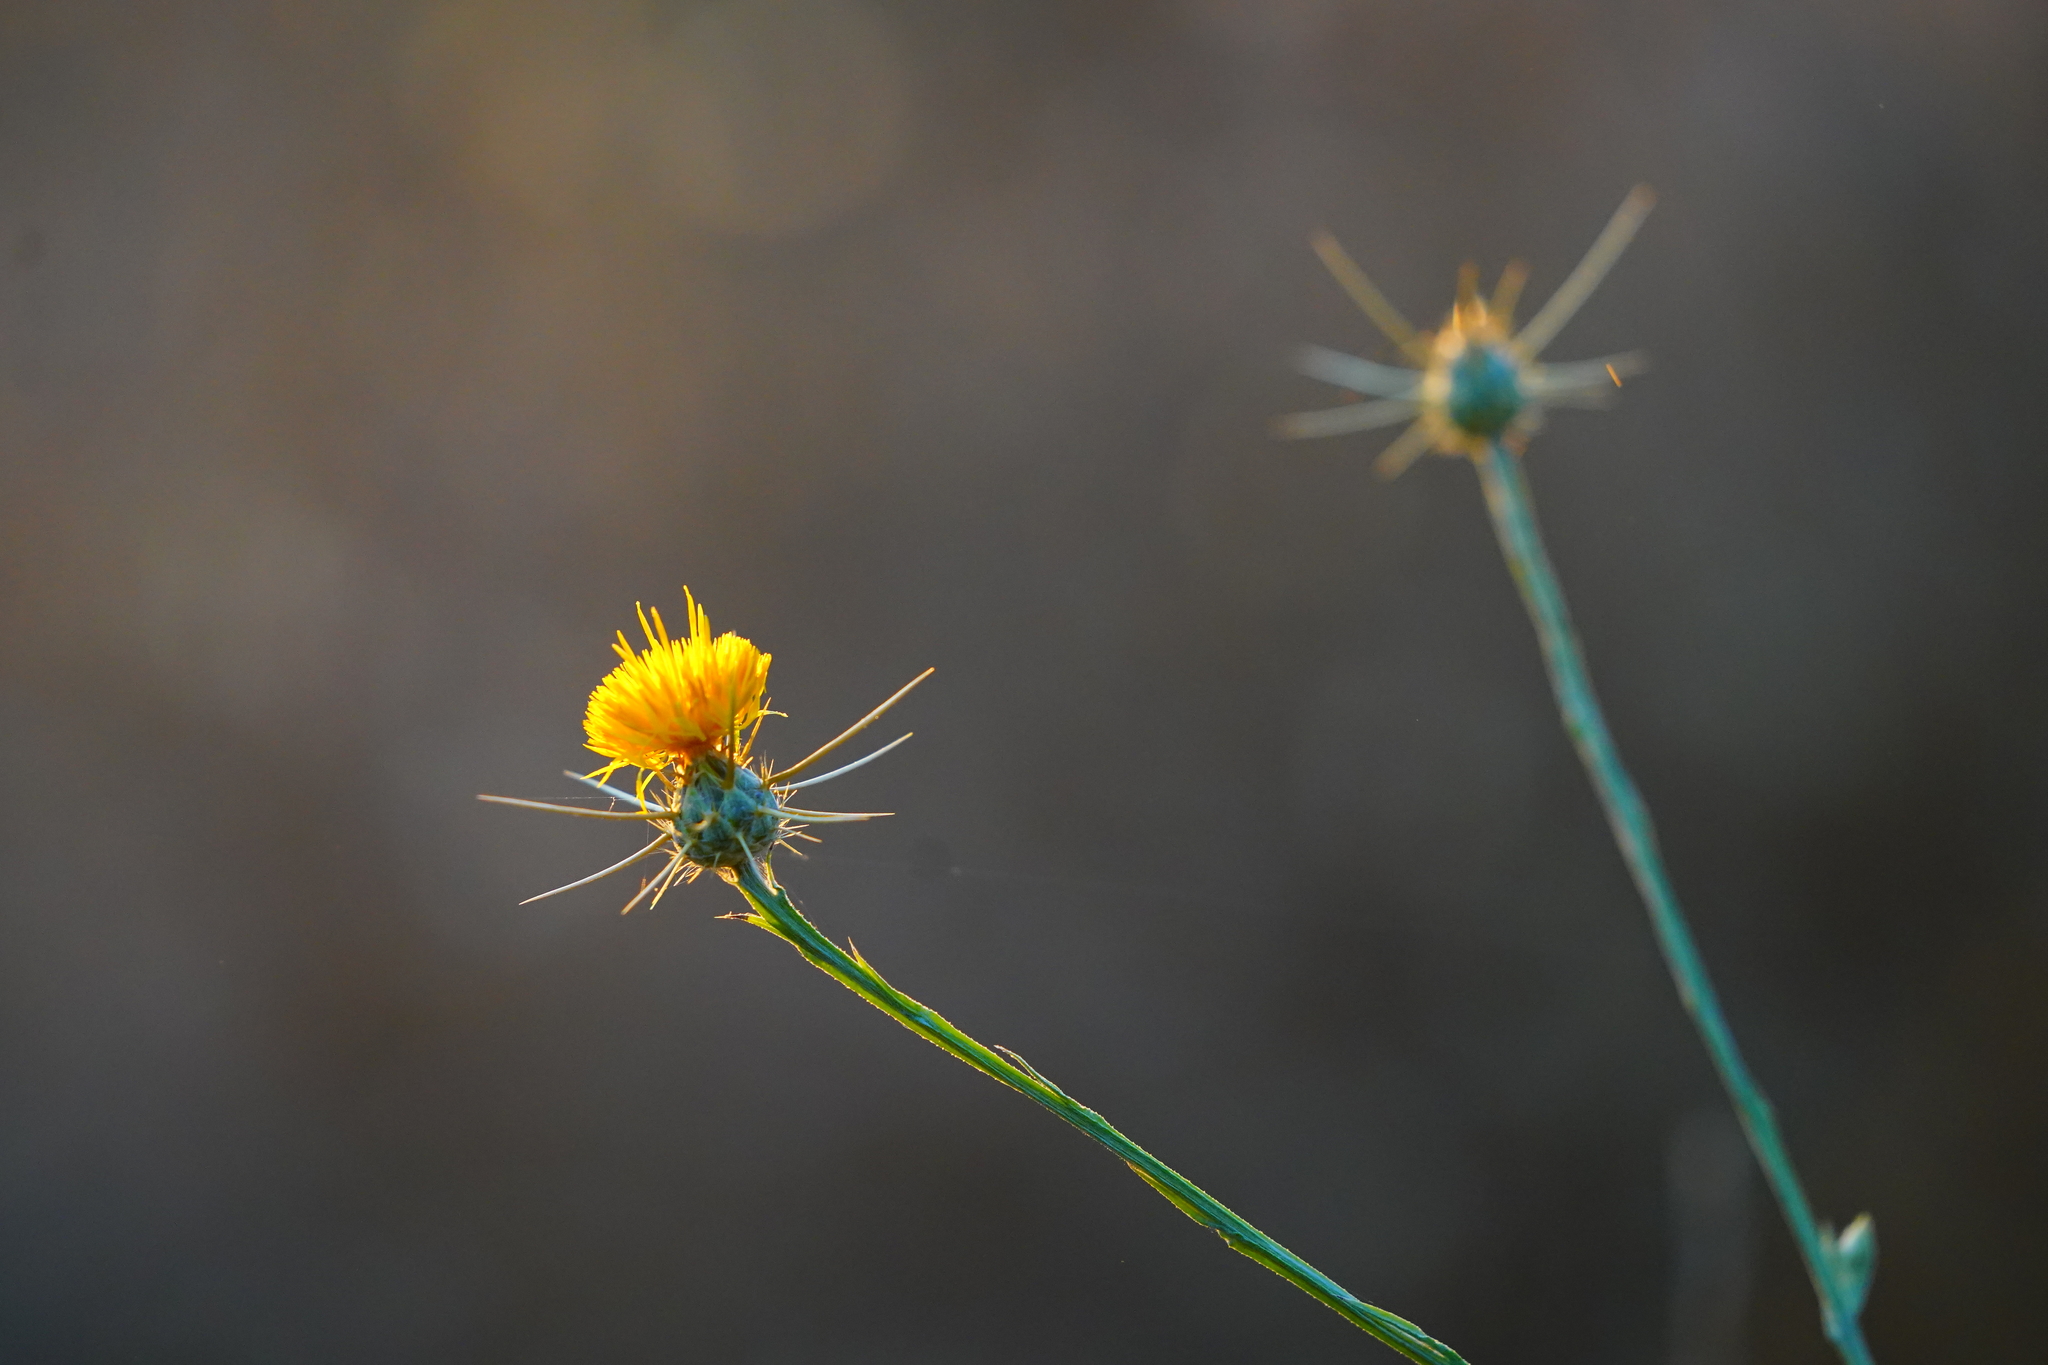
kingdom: Plantae
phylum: Tracheophyta
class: Magnoliopsida
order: Asterales
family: Asteraceae
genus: Centaurea
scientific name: Centaurea solstitialis
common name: Yellow star-thistle
